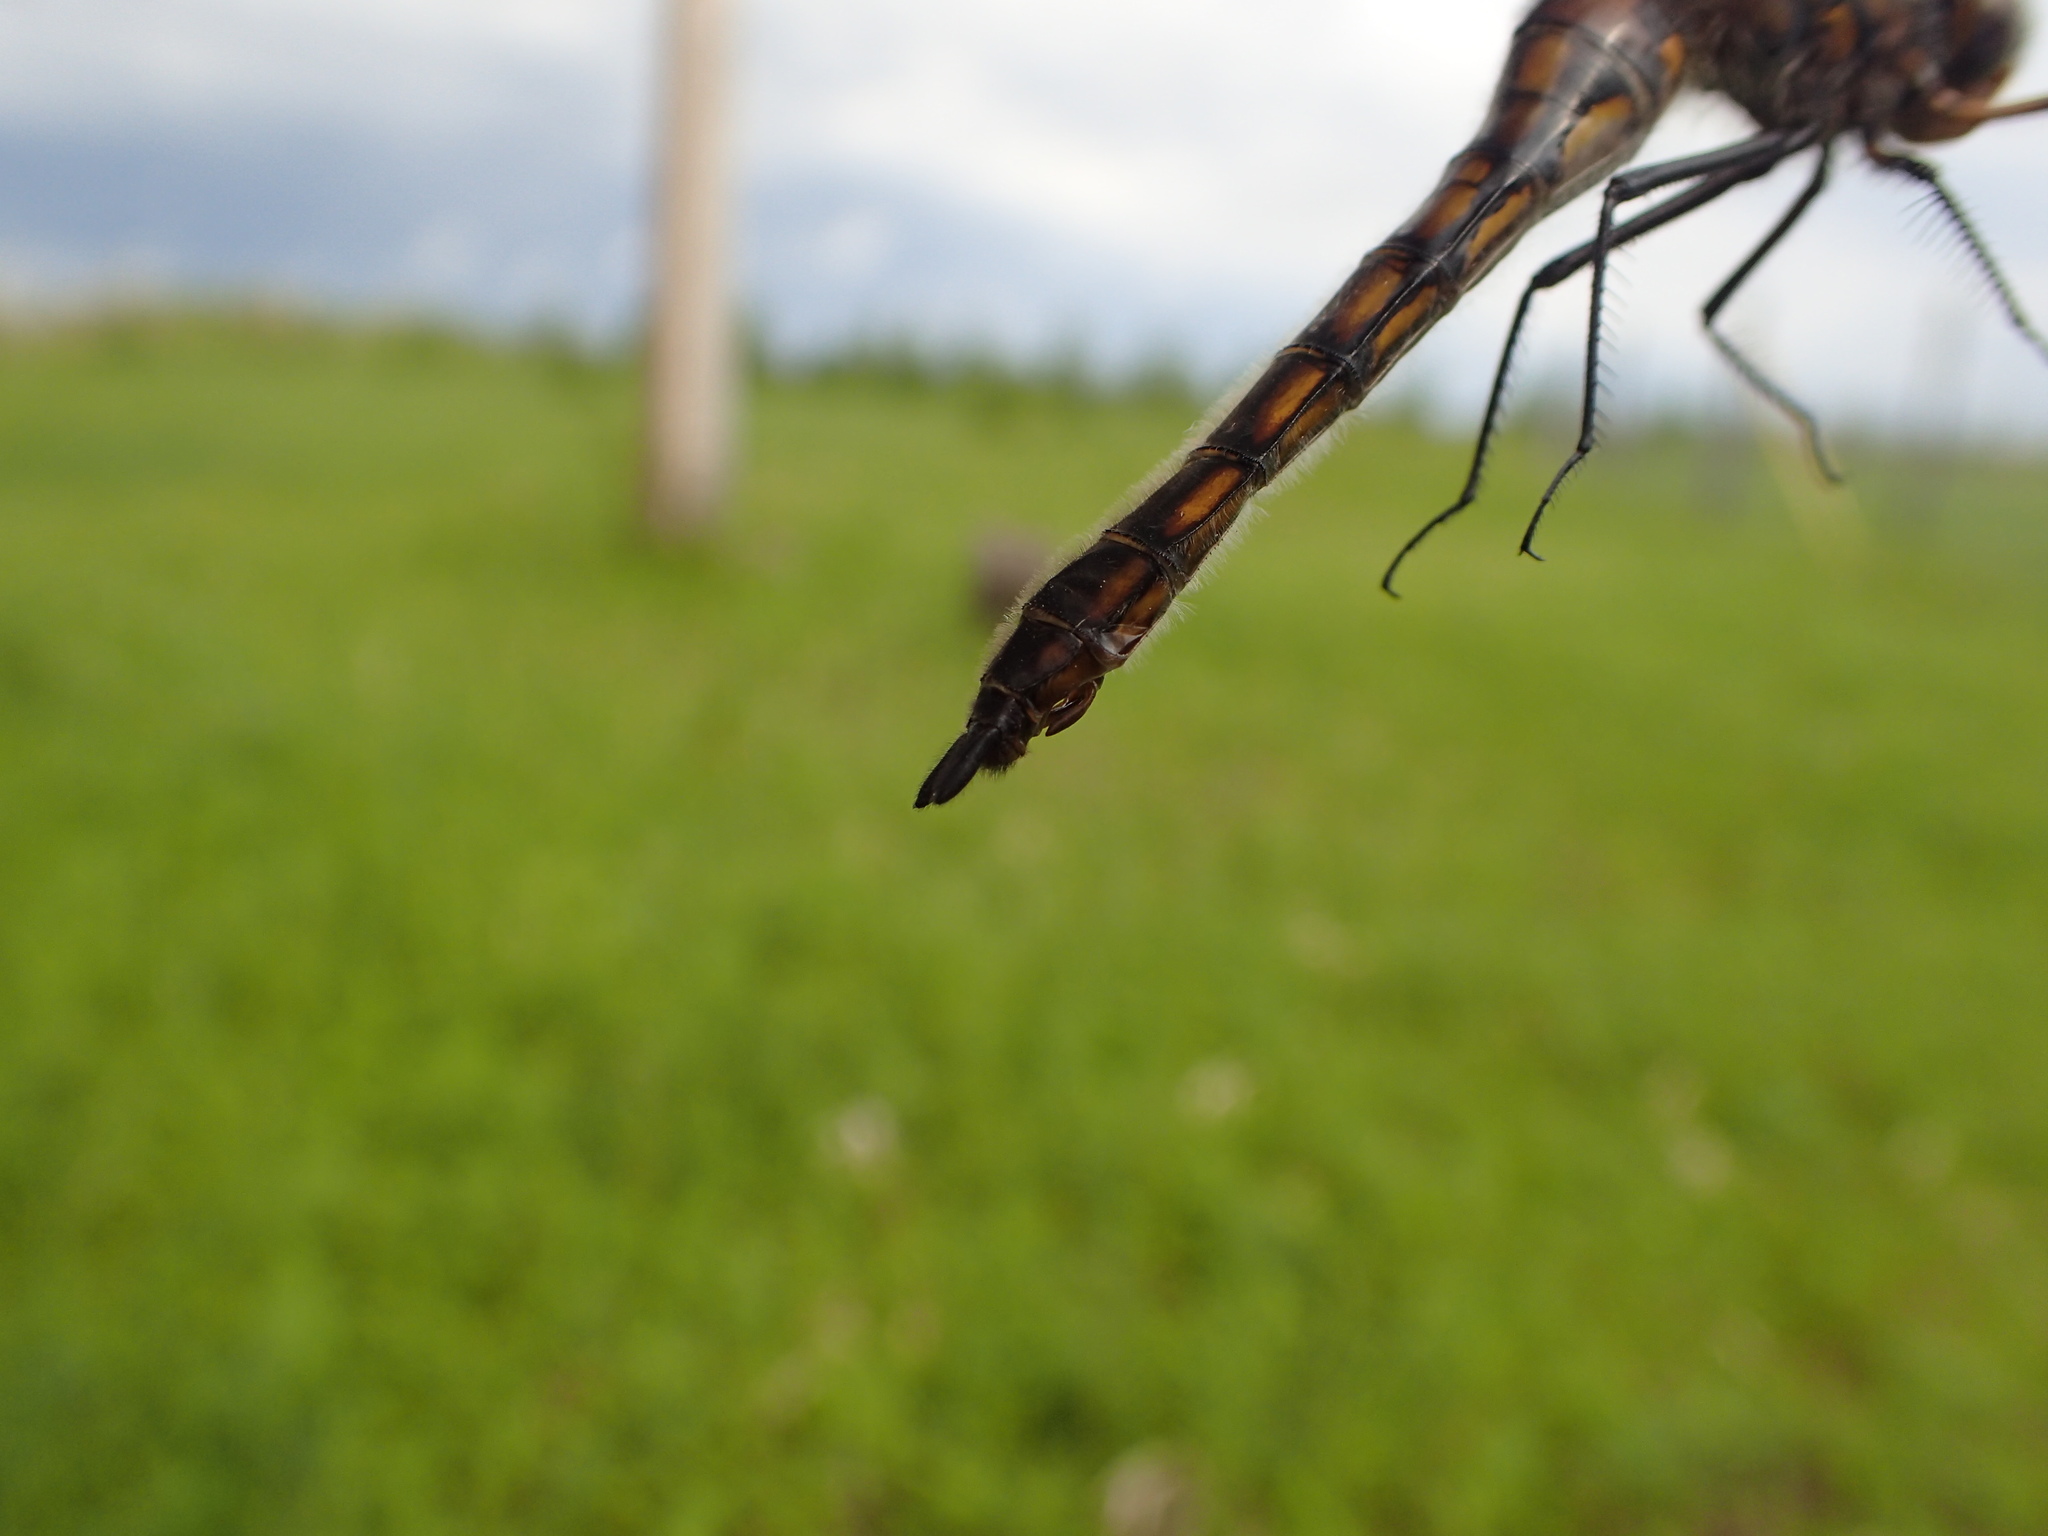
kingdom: Animalia
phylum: Arthropoda
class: Insecta
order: Odonata
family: Corduliidae
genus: Epitheca
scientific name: Epitheca canis
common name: Beaverpond baskettail
